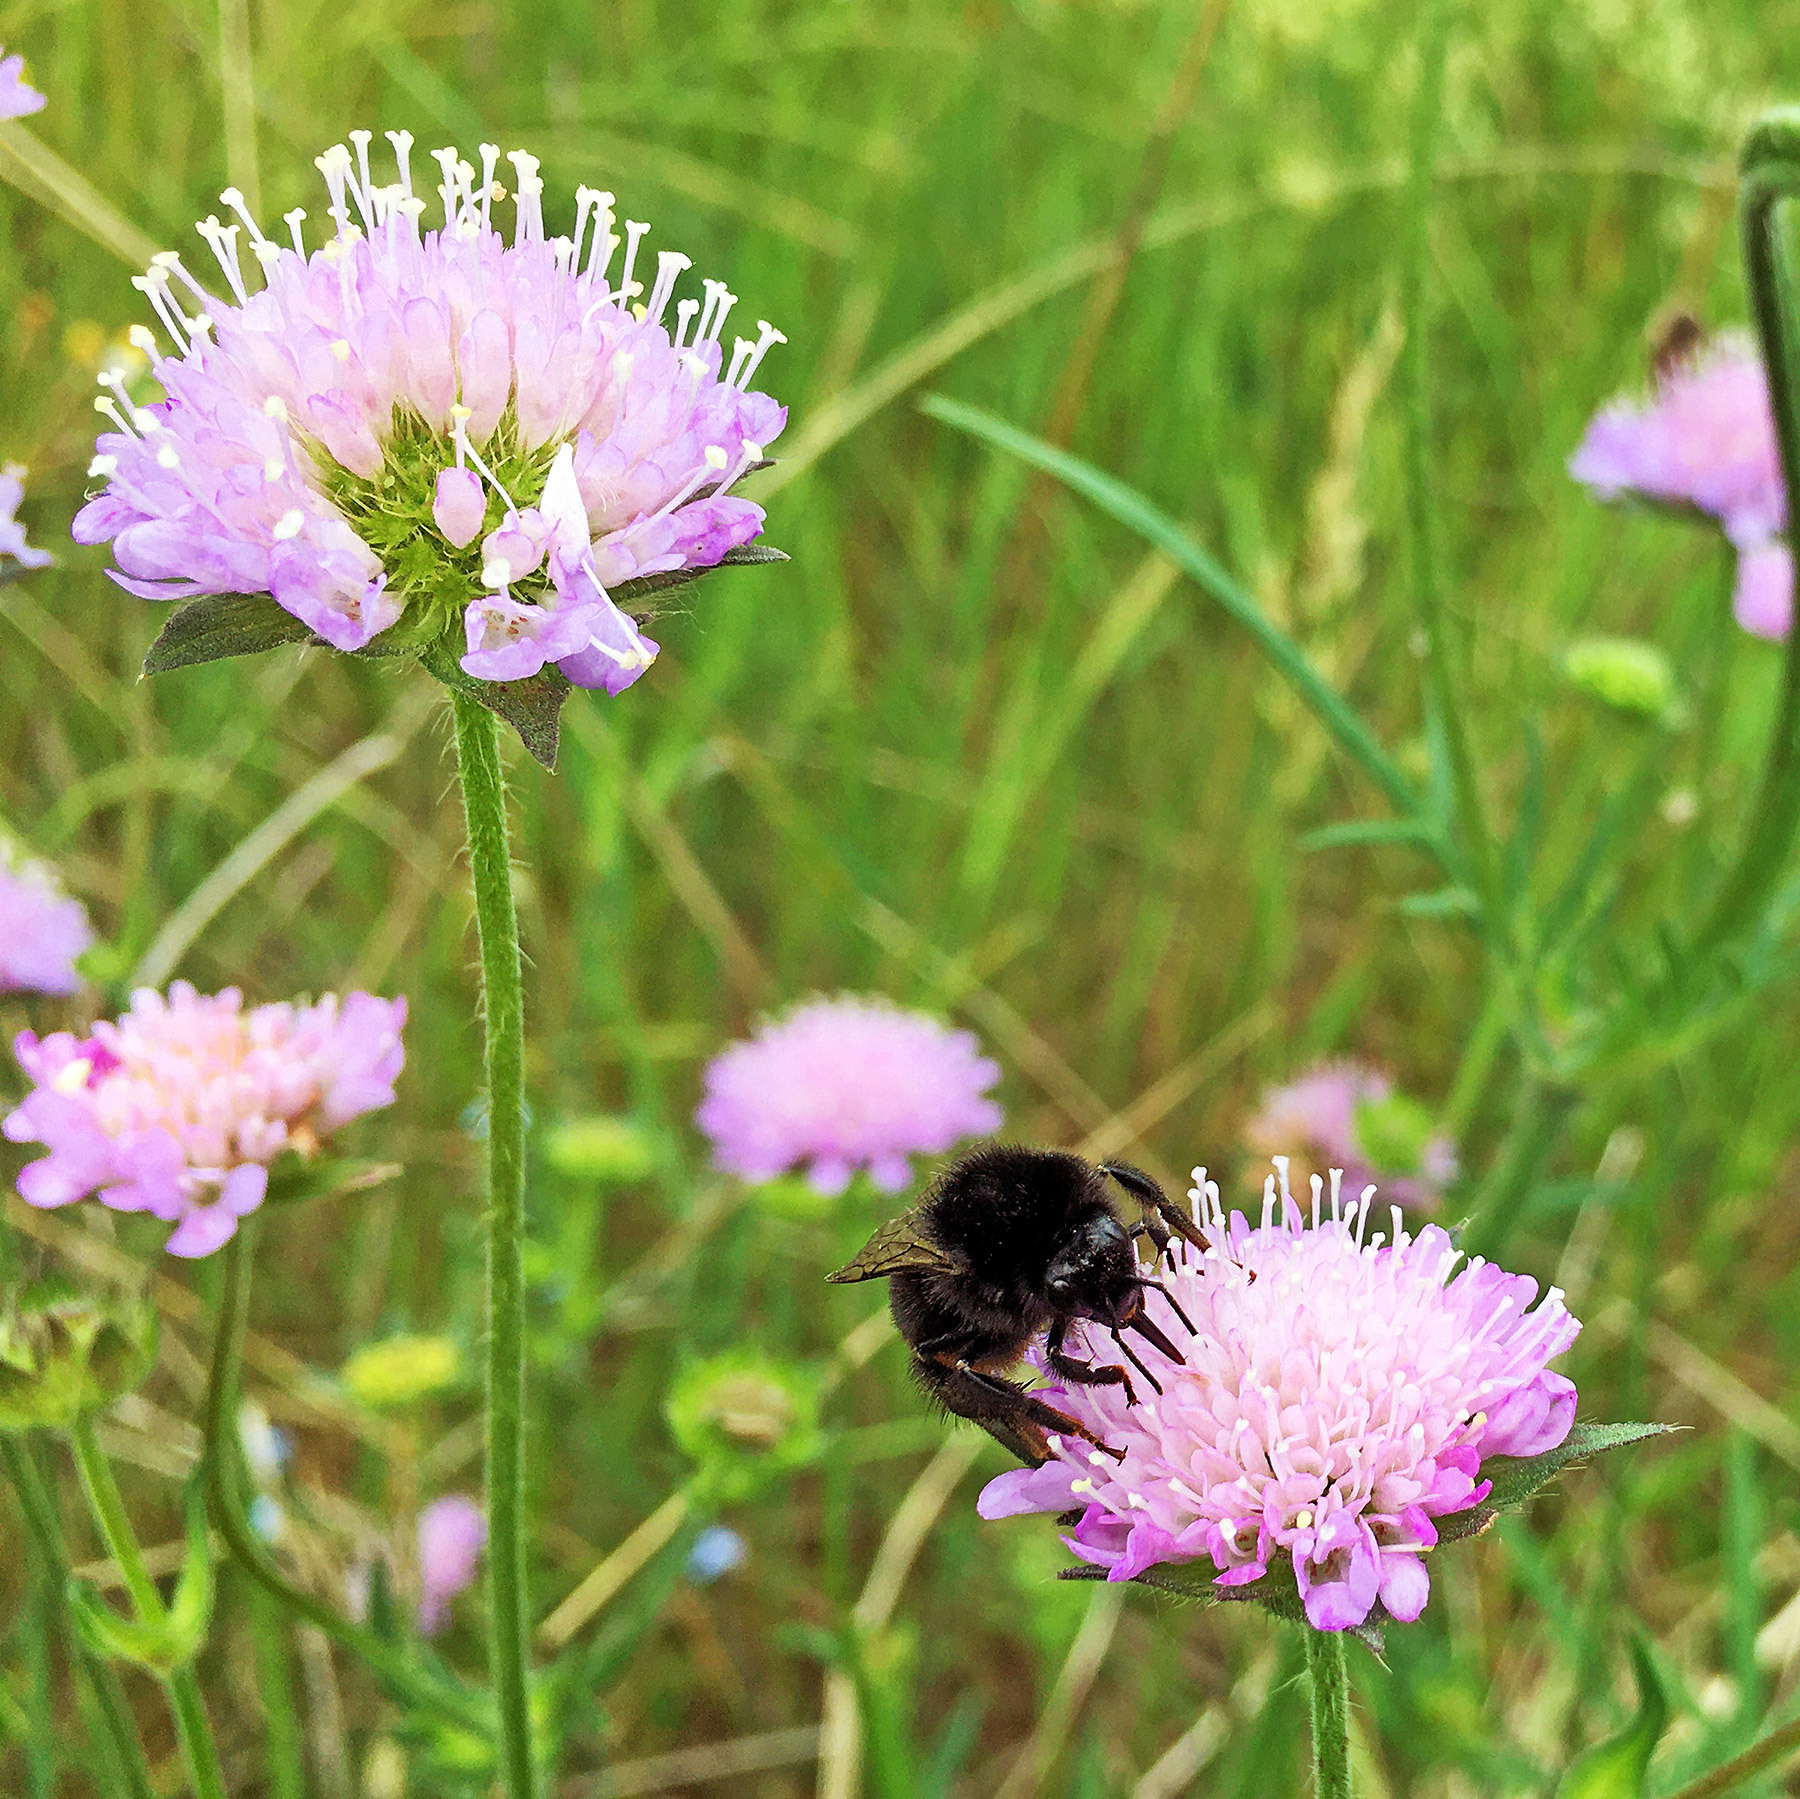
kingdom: Animalia
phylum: Arthropoda
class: Insecta
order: Hymenoptera
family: Apidae
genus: Bombus
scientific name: Bombus lapidarius
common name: Large red-tailed humble-bee
